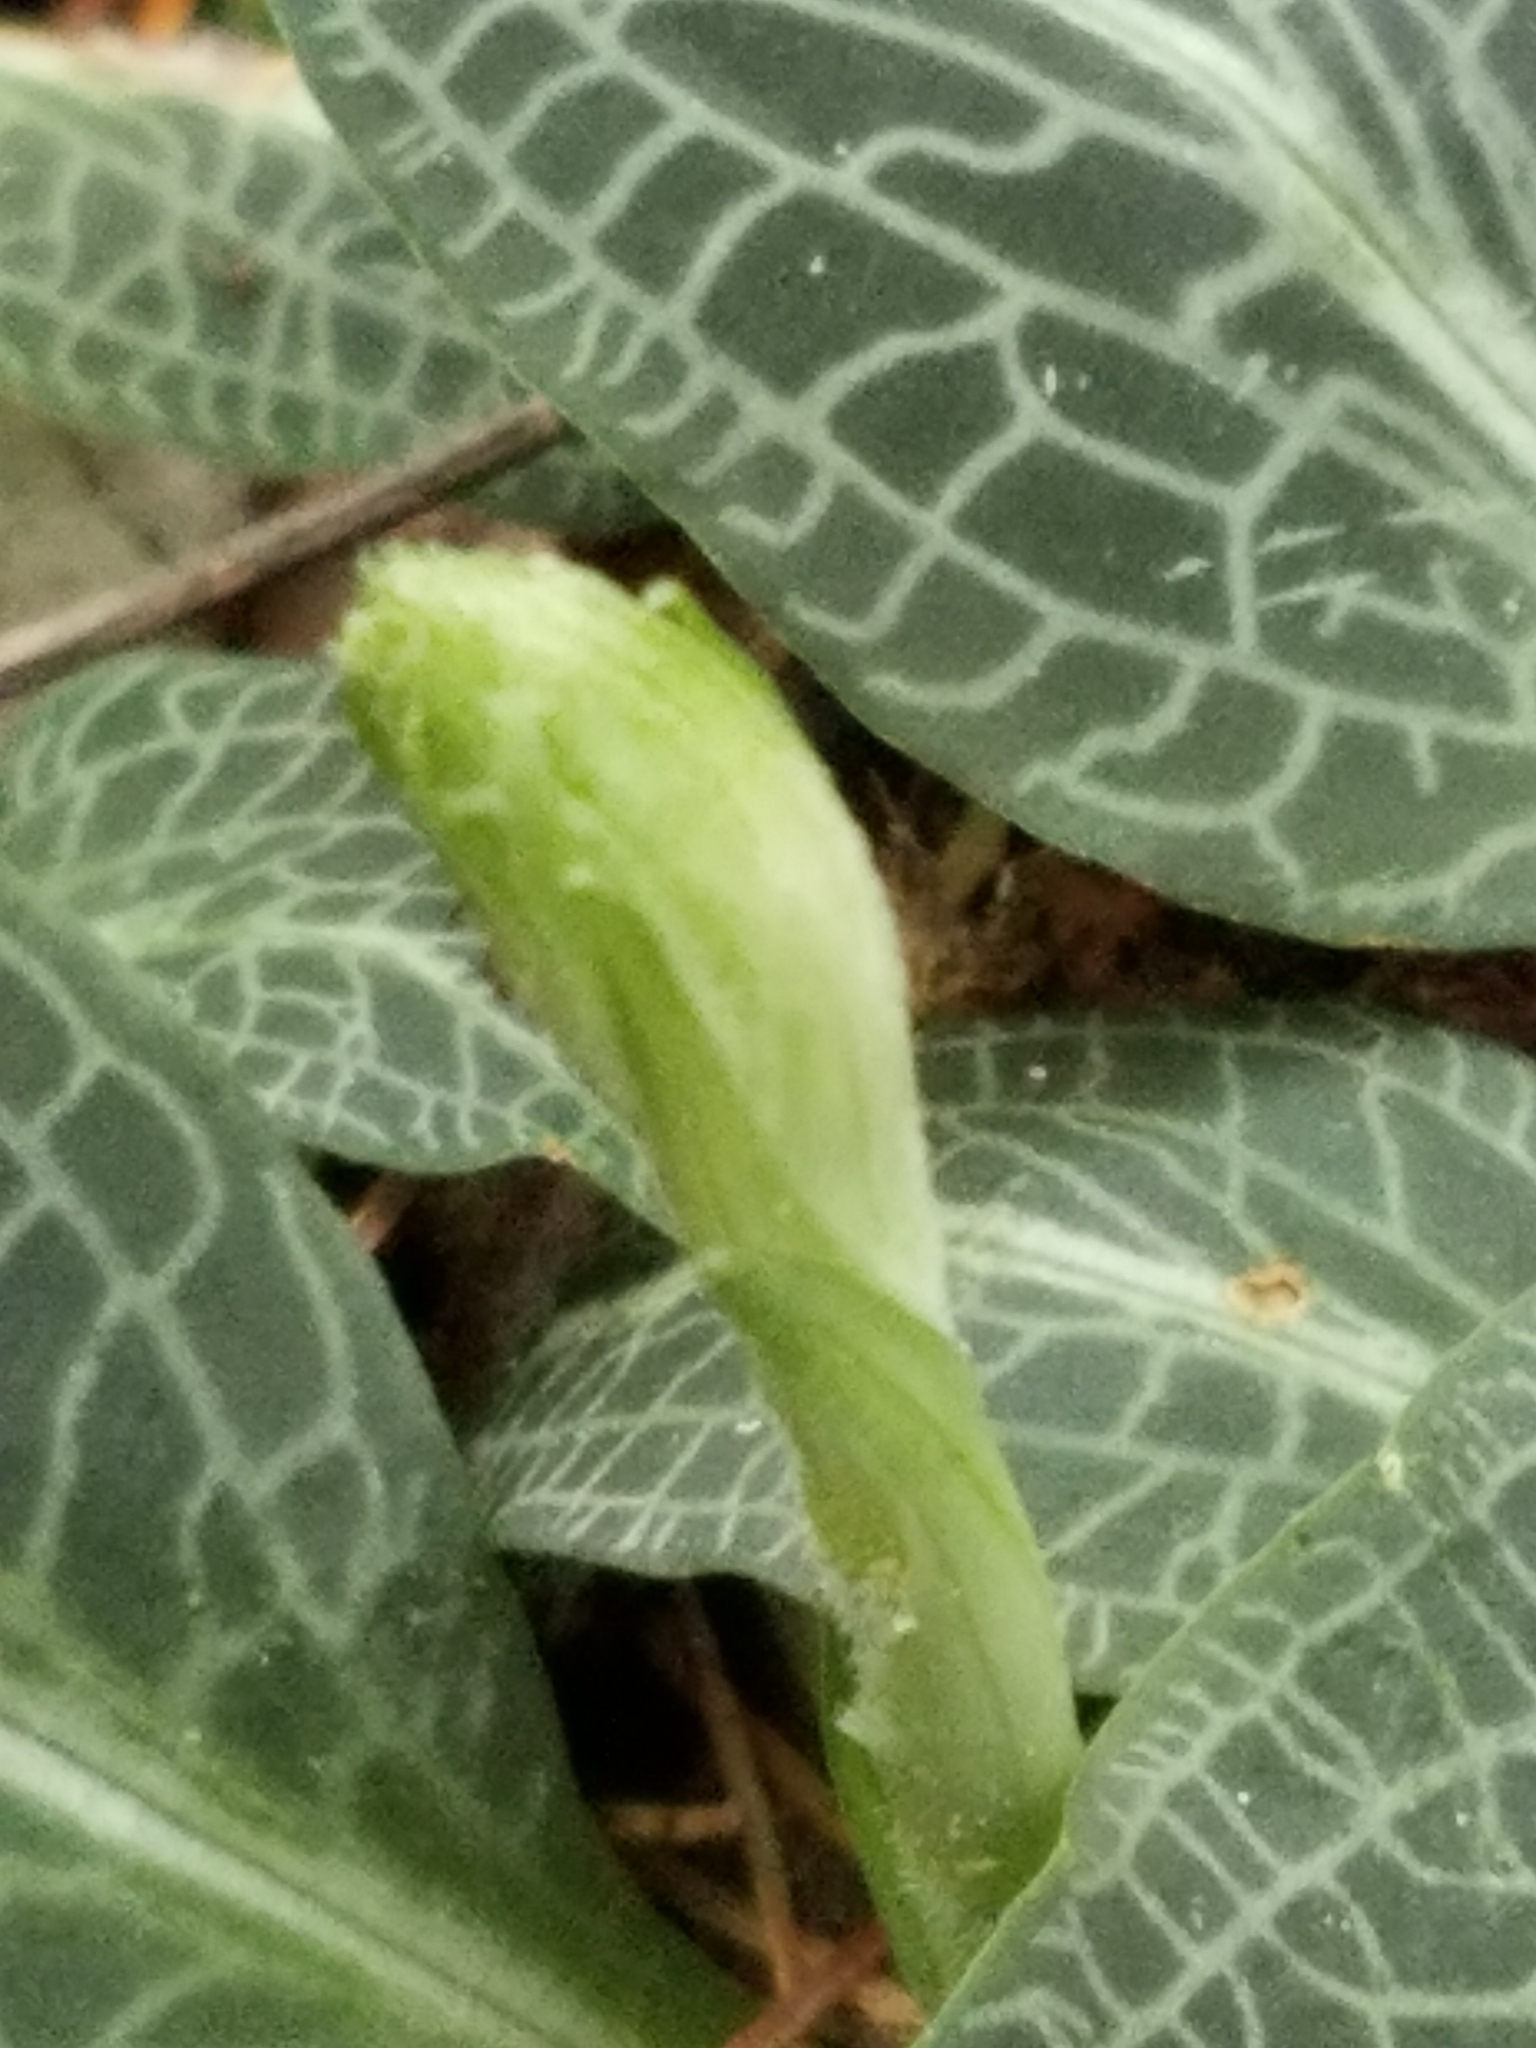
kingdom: Plantae
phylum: Tracheophyta
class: Liliopsida
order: Asparagales
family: Orchidaceae
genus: Goodyera
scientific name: Goodyera pubescens
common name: Downy rattlesnake-plantain
